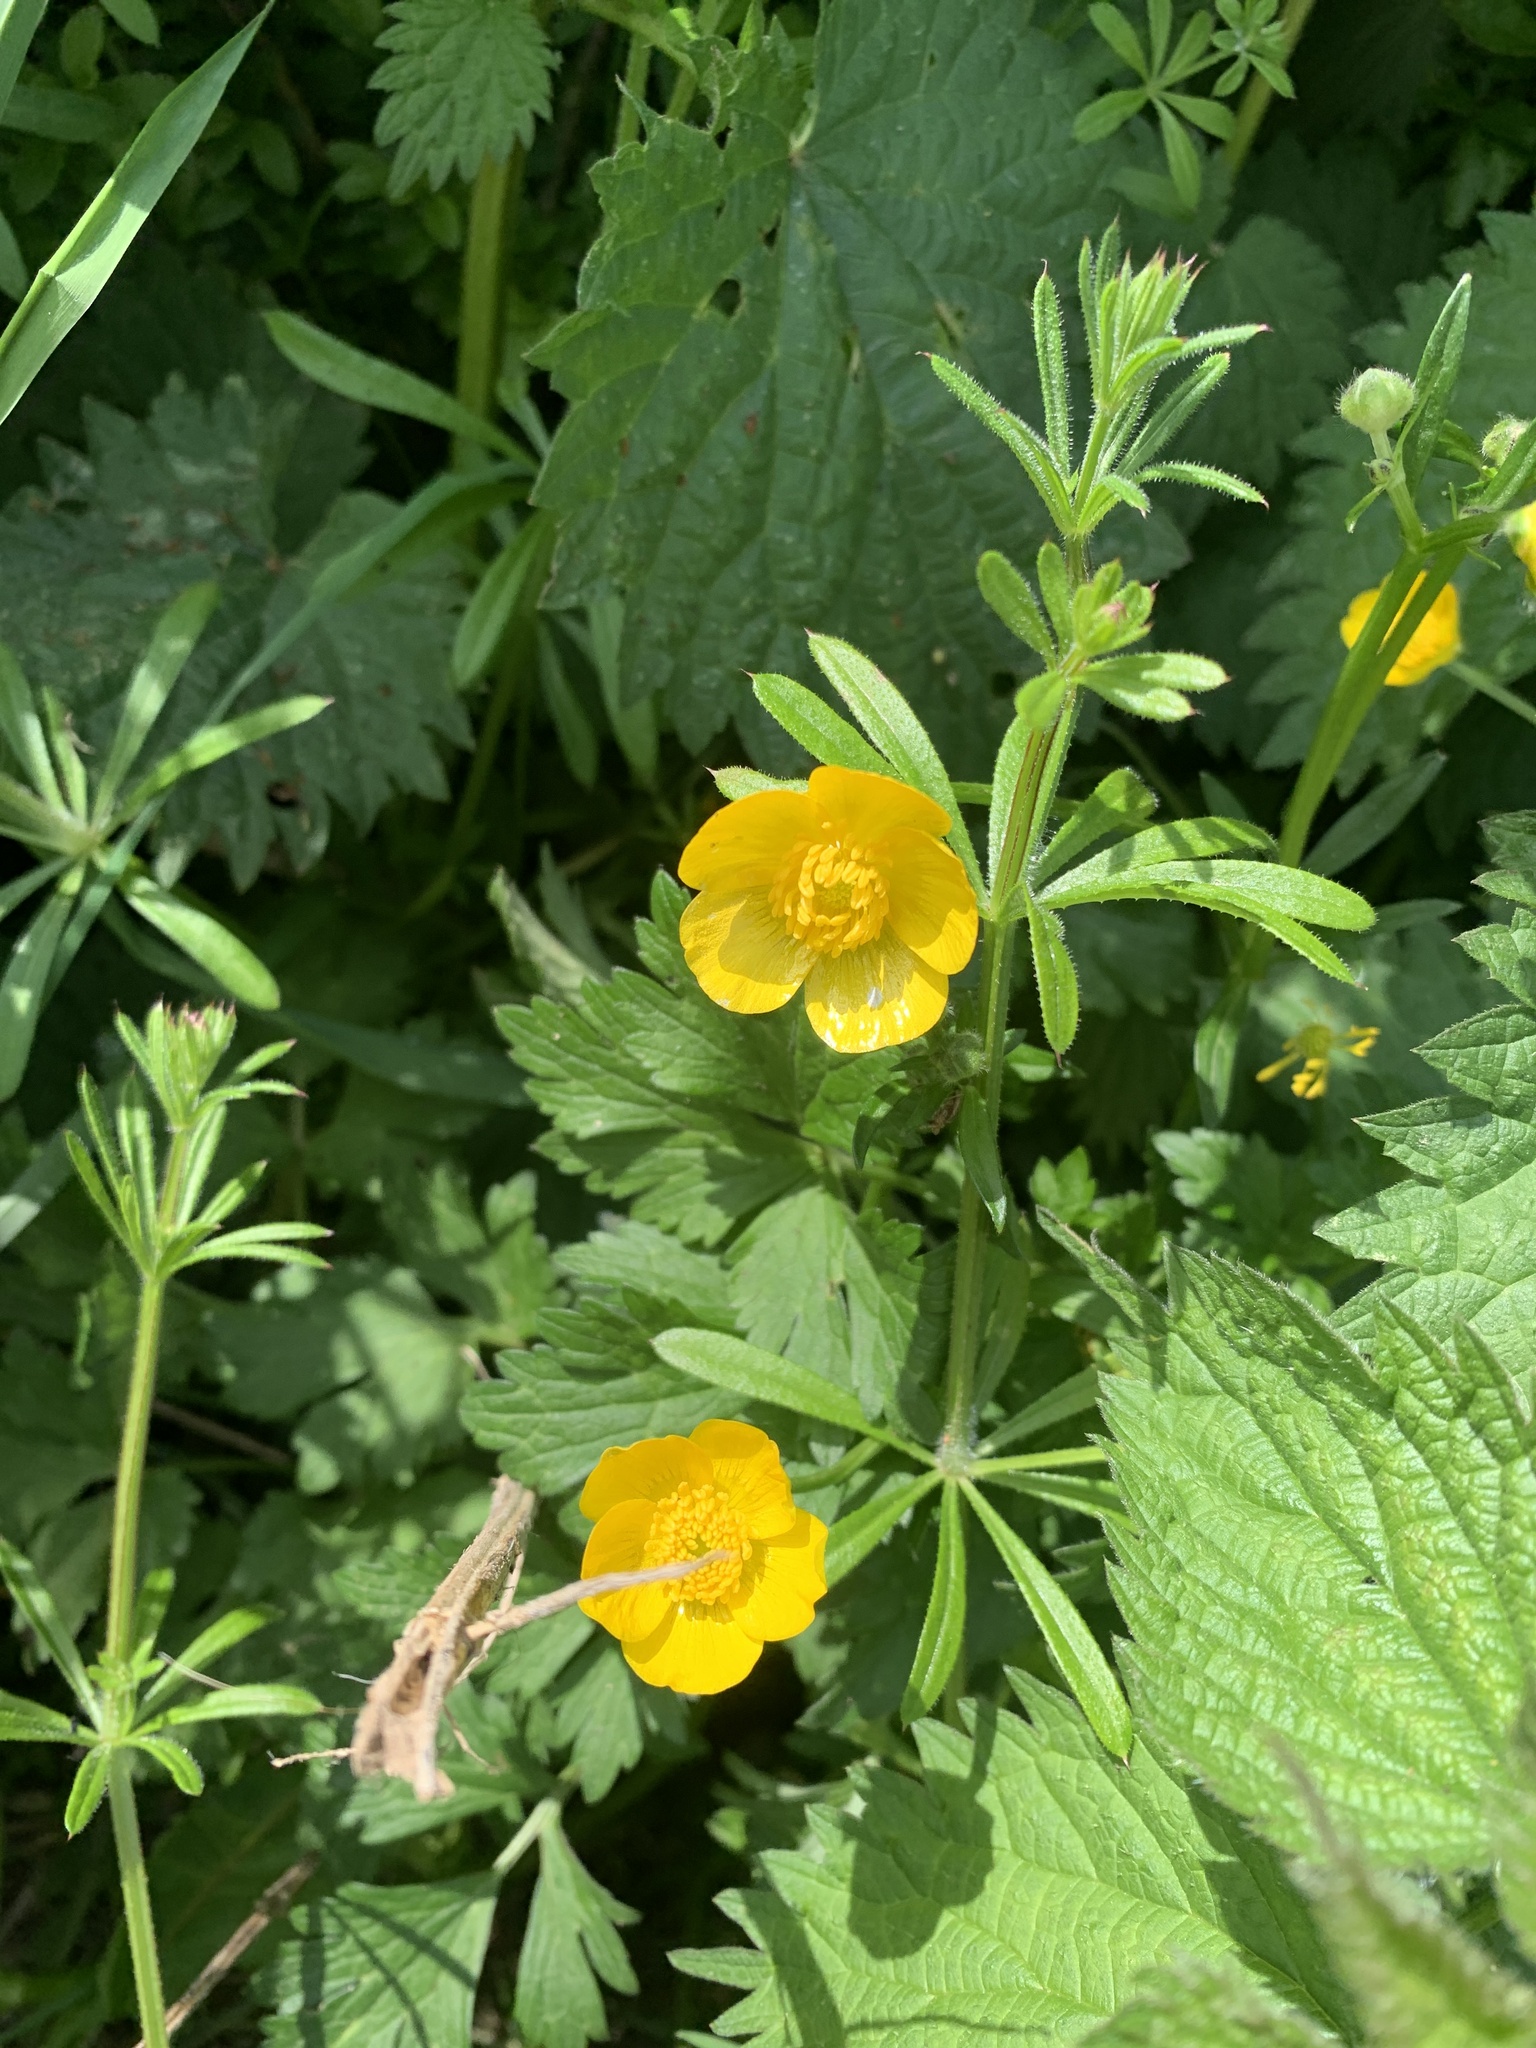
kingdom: Plantae
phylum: Tracheophyta
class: Magnoliopsida
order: Ranunculales
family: Ranunculaceae
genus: Ranunculus
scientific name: Ranunculus acris
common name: Meadow buttercup
